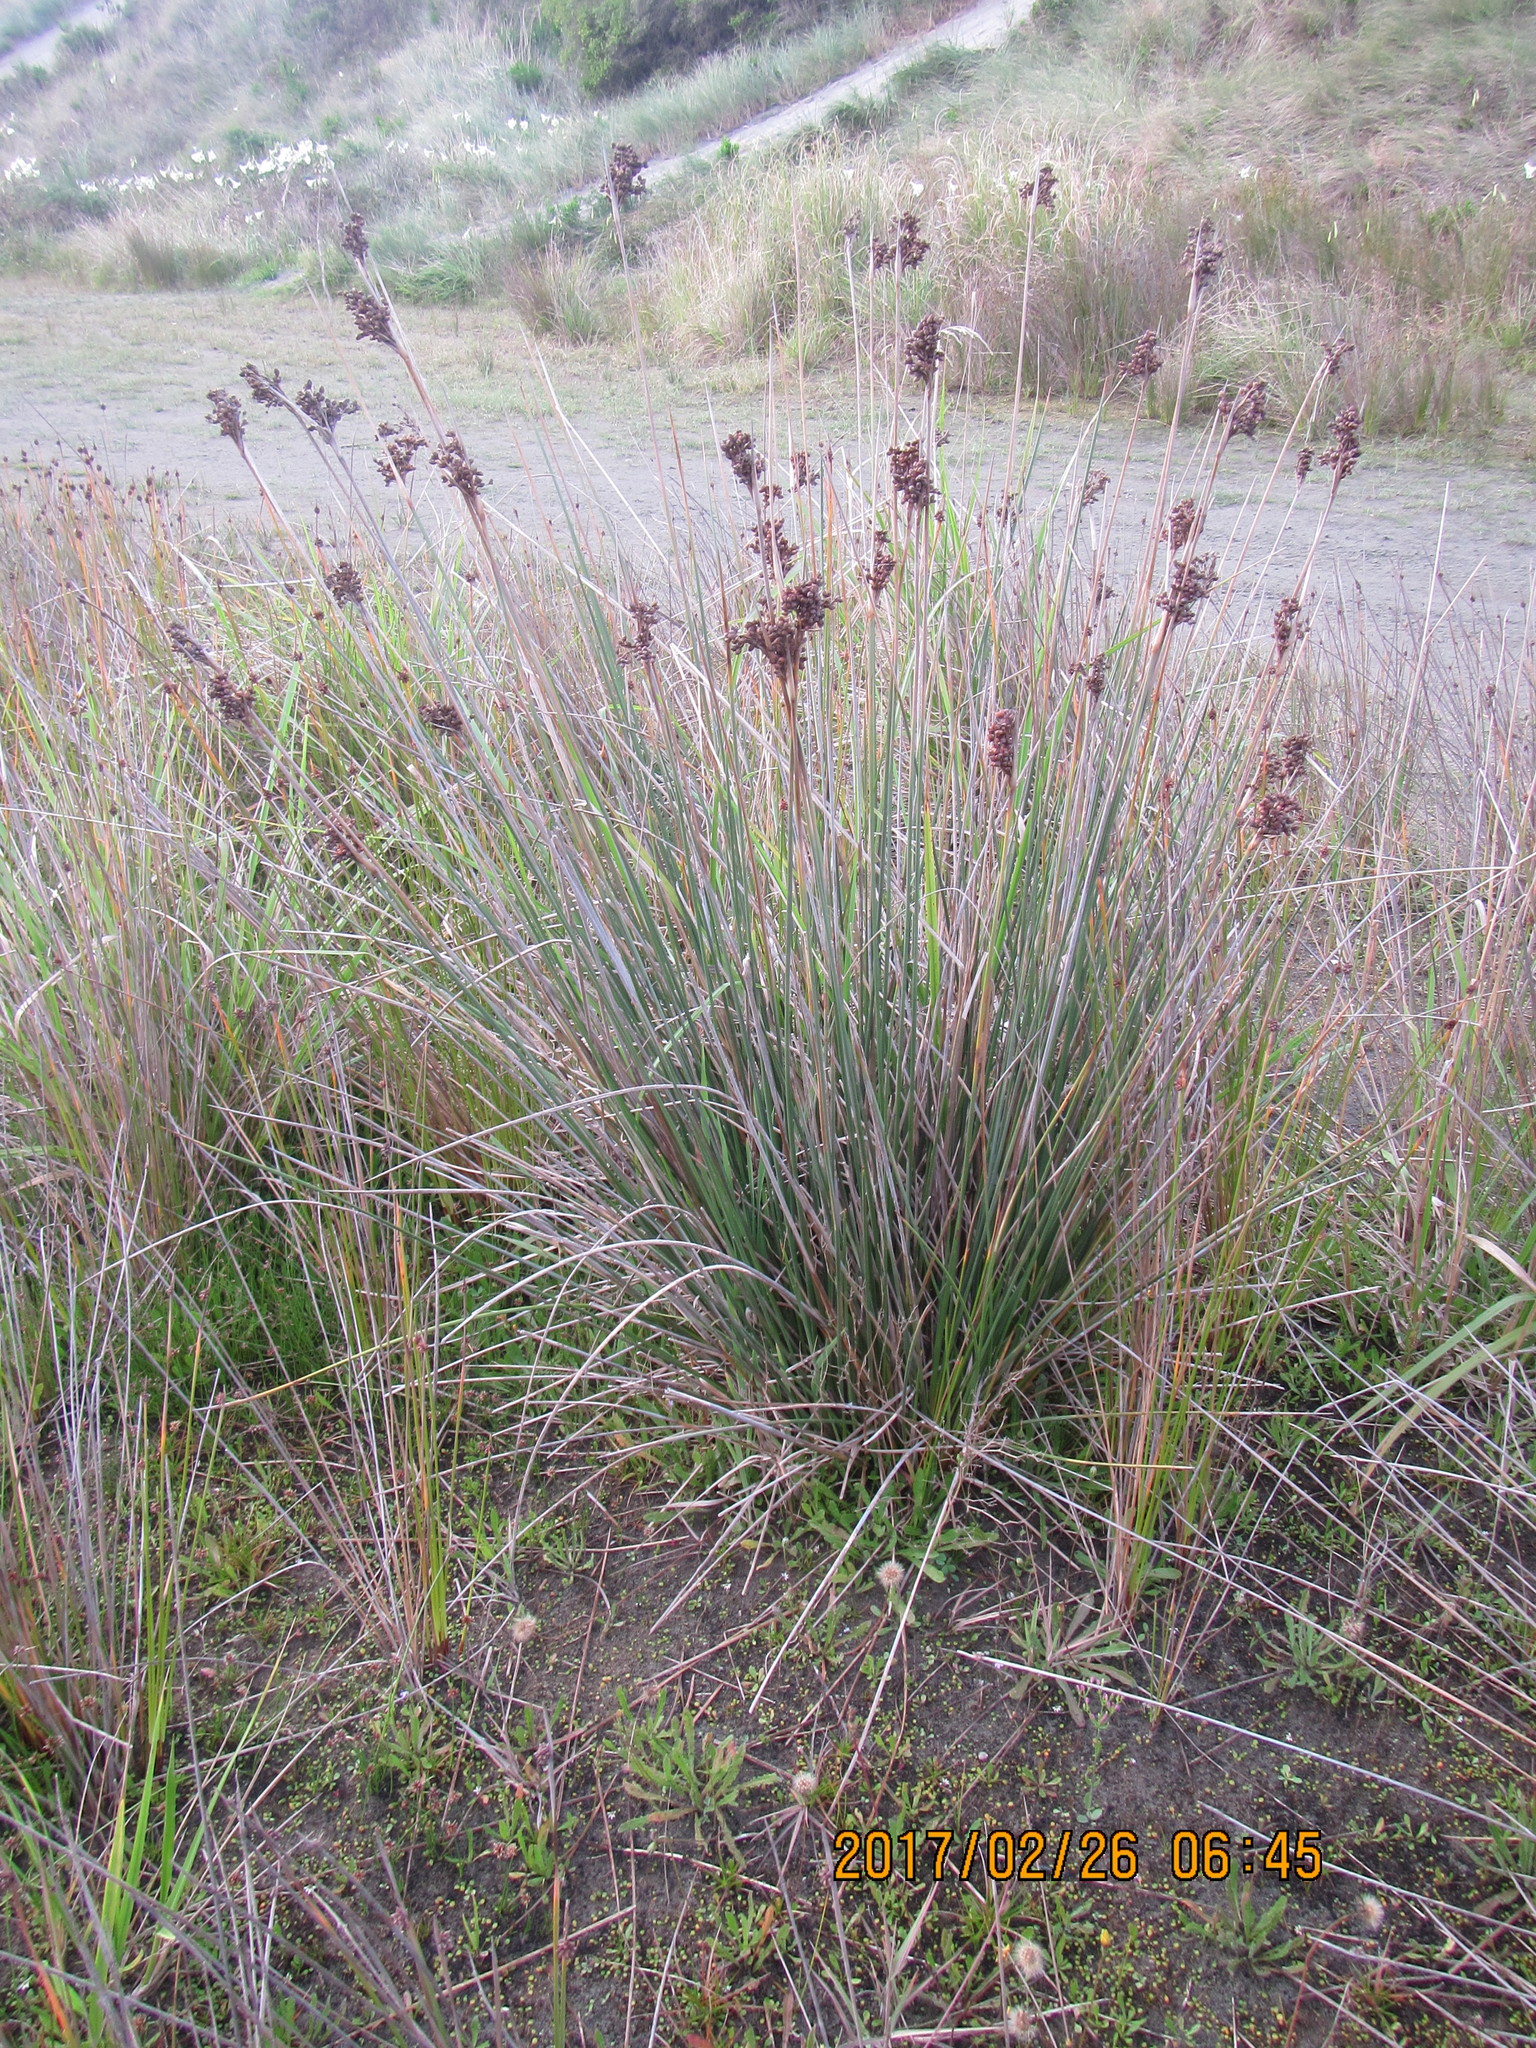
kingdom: Plantae
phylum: Tracheophyta
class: Liliopsida
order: Poales
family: Juncaceae
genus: Juncus
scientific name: Juncus acutus
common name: Sharp rush
